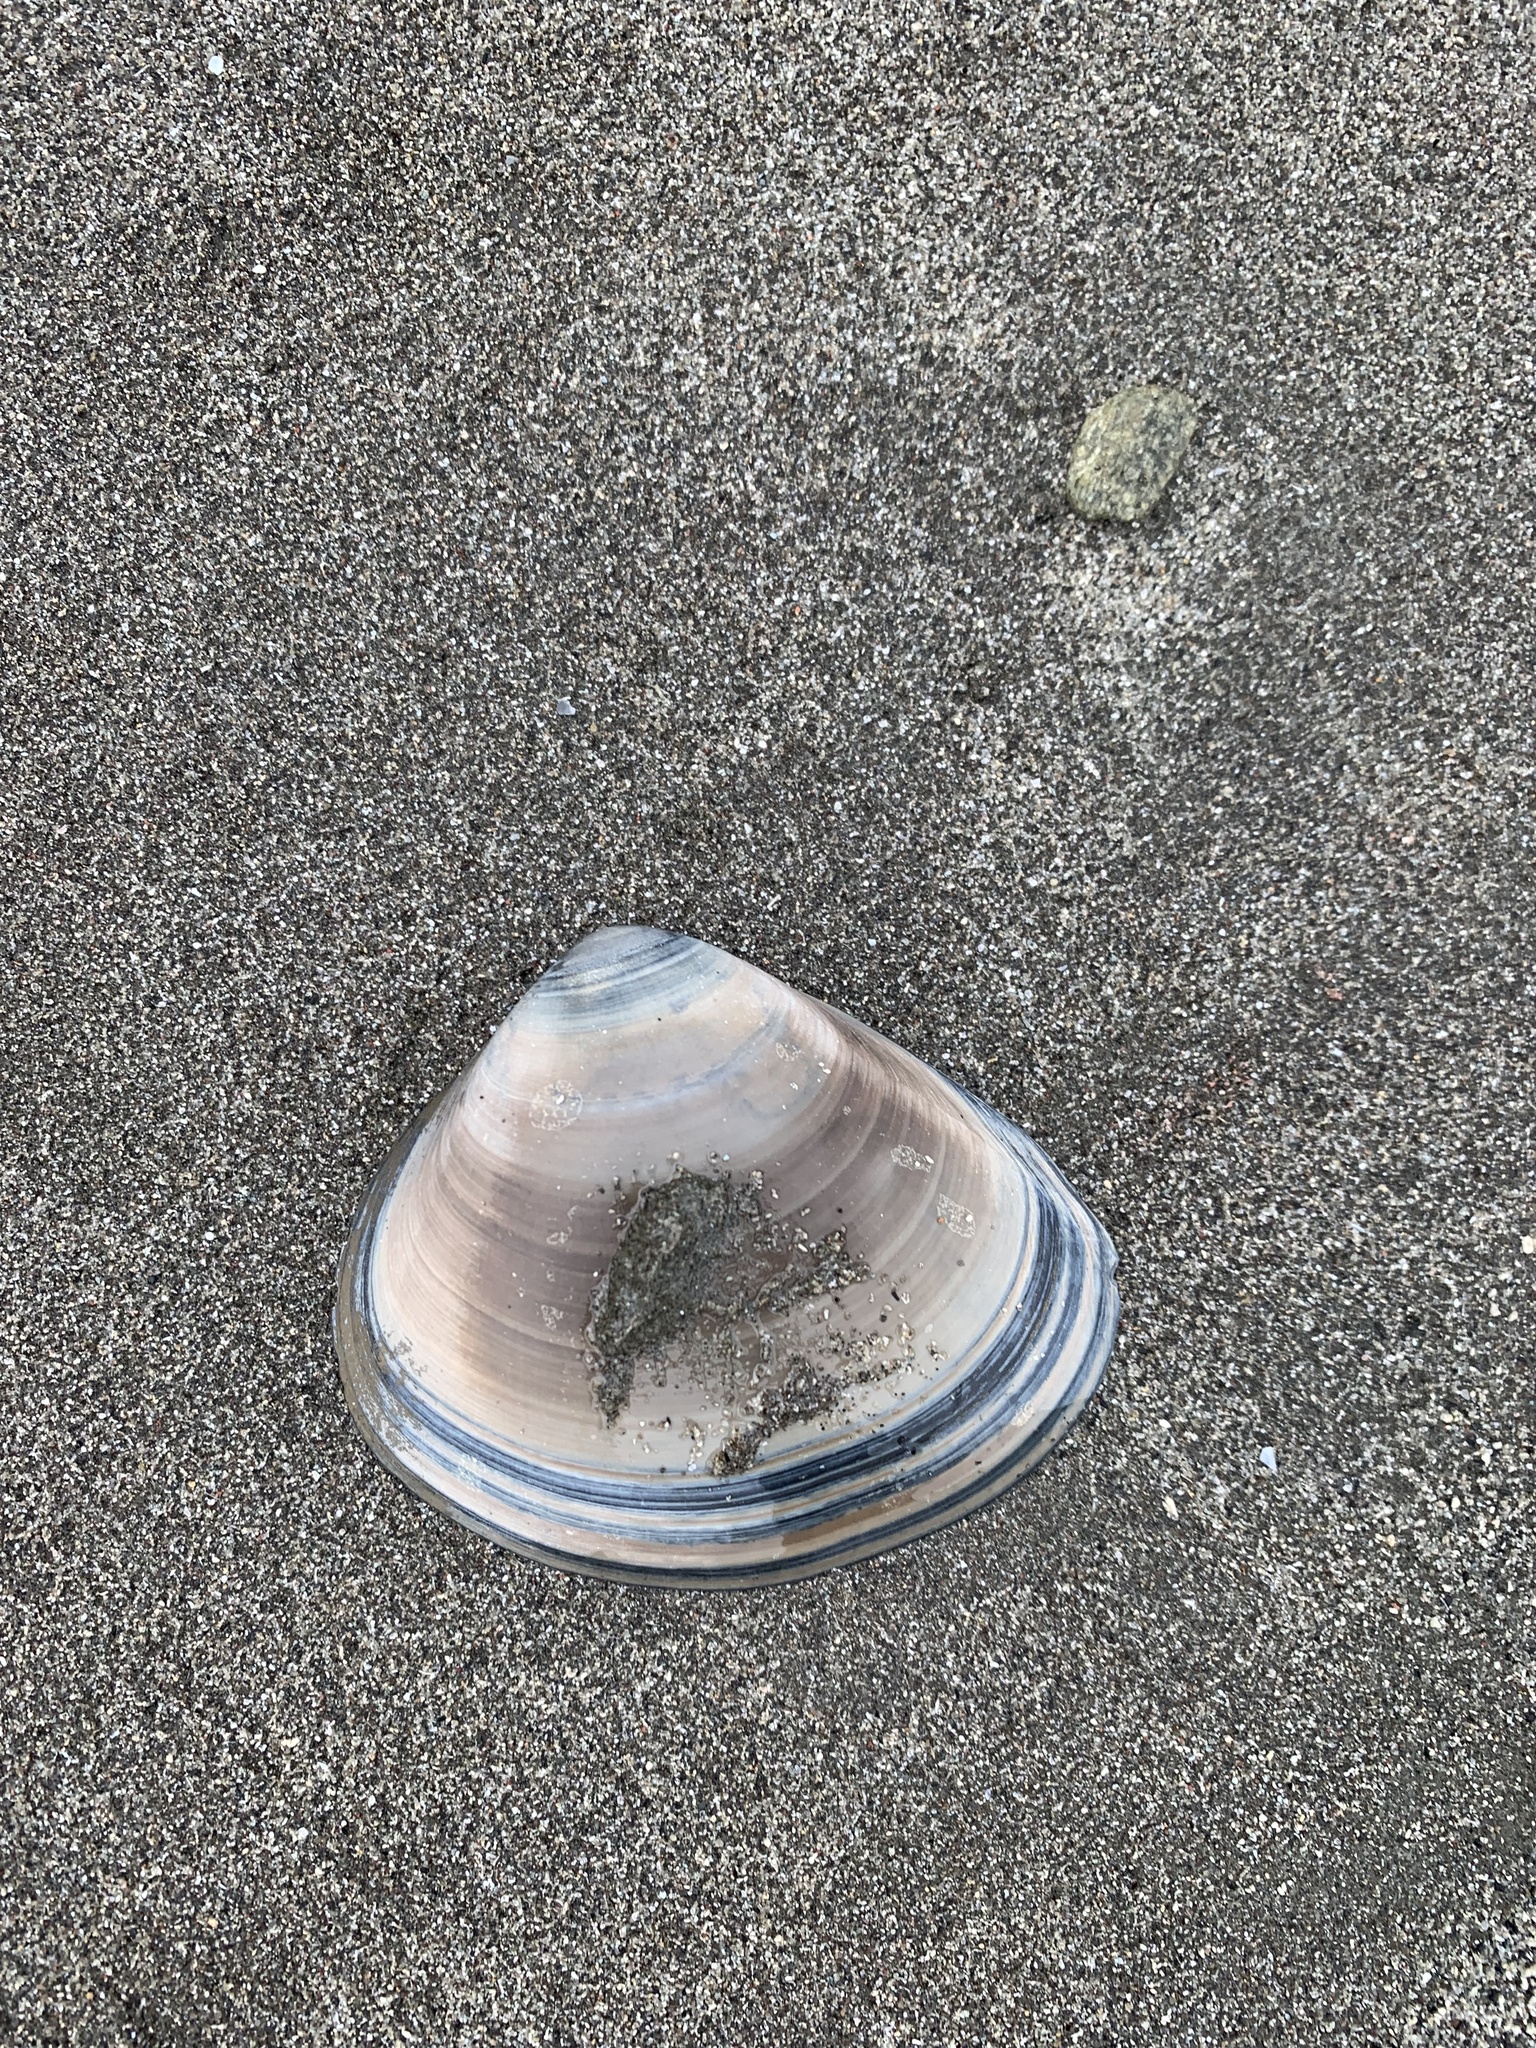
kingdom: Animalia
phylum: Mollusca
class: Bivalvia
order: Venerida
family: Mactridae
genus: Spisula
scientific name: Spisula murchisoni
